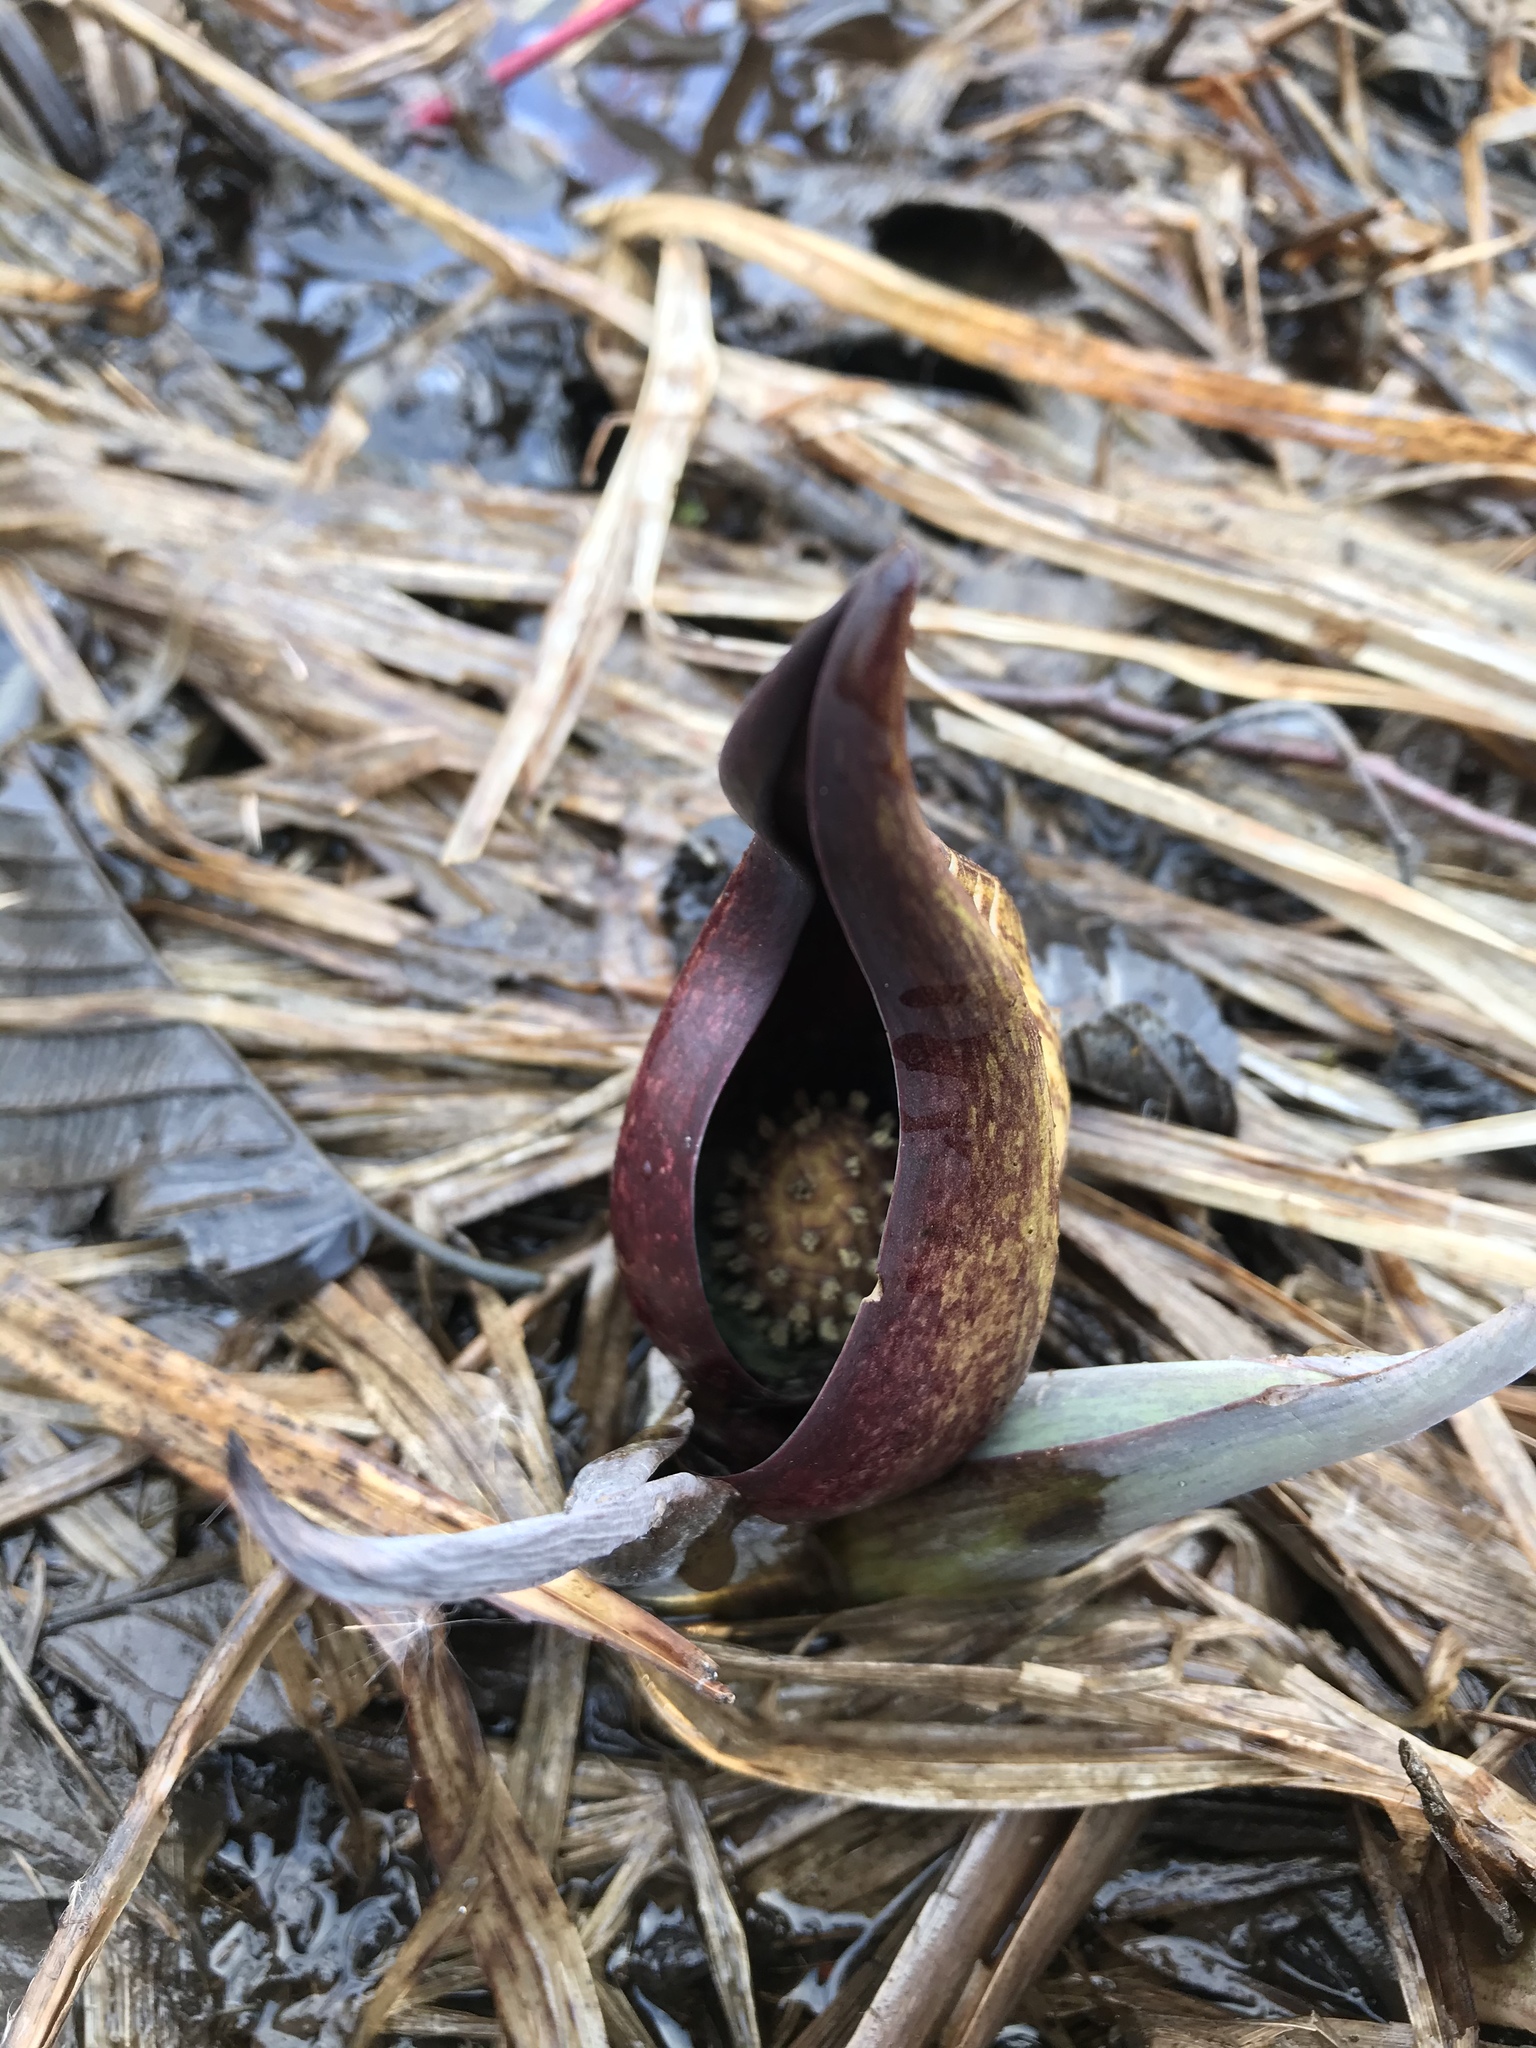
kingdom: Plantae
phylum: Tracheophyta
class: Liliopsida
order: Alismatales
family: Araceae
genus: Symplocarpus
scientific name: Symplocarpus foetidus
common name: Eastern skunk cabbage
